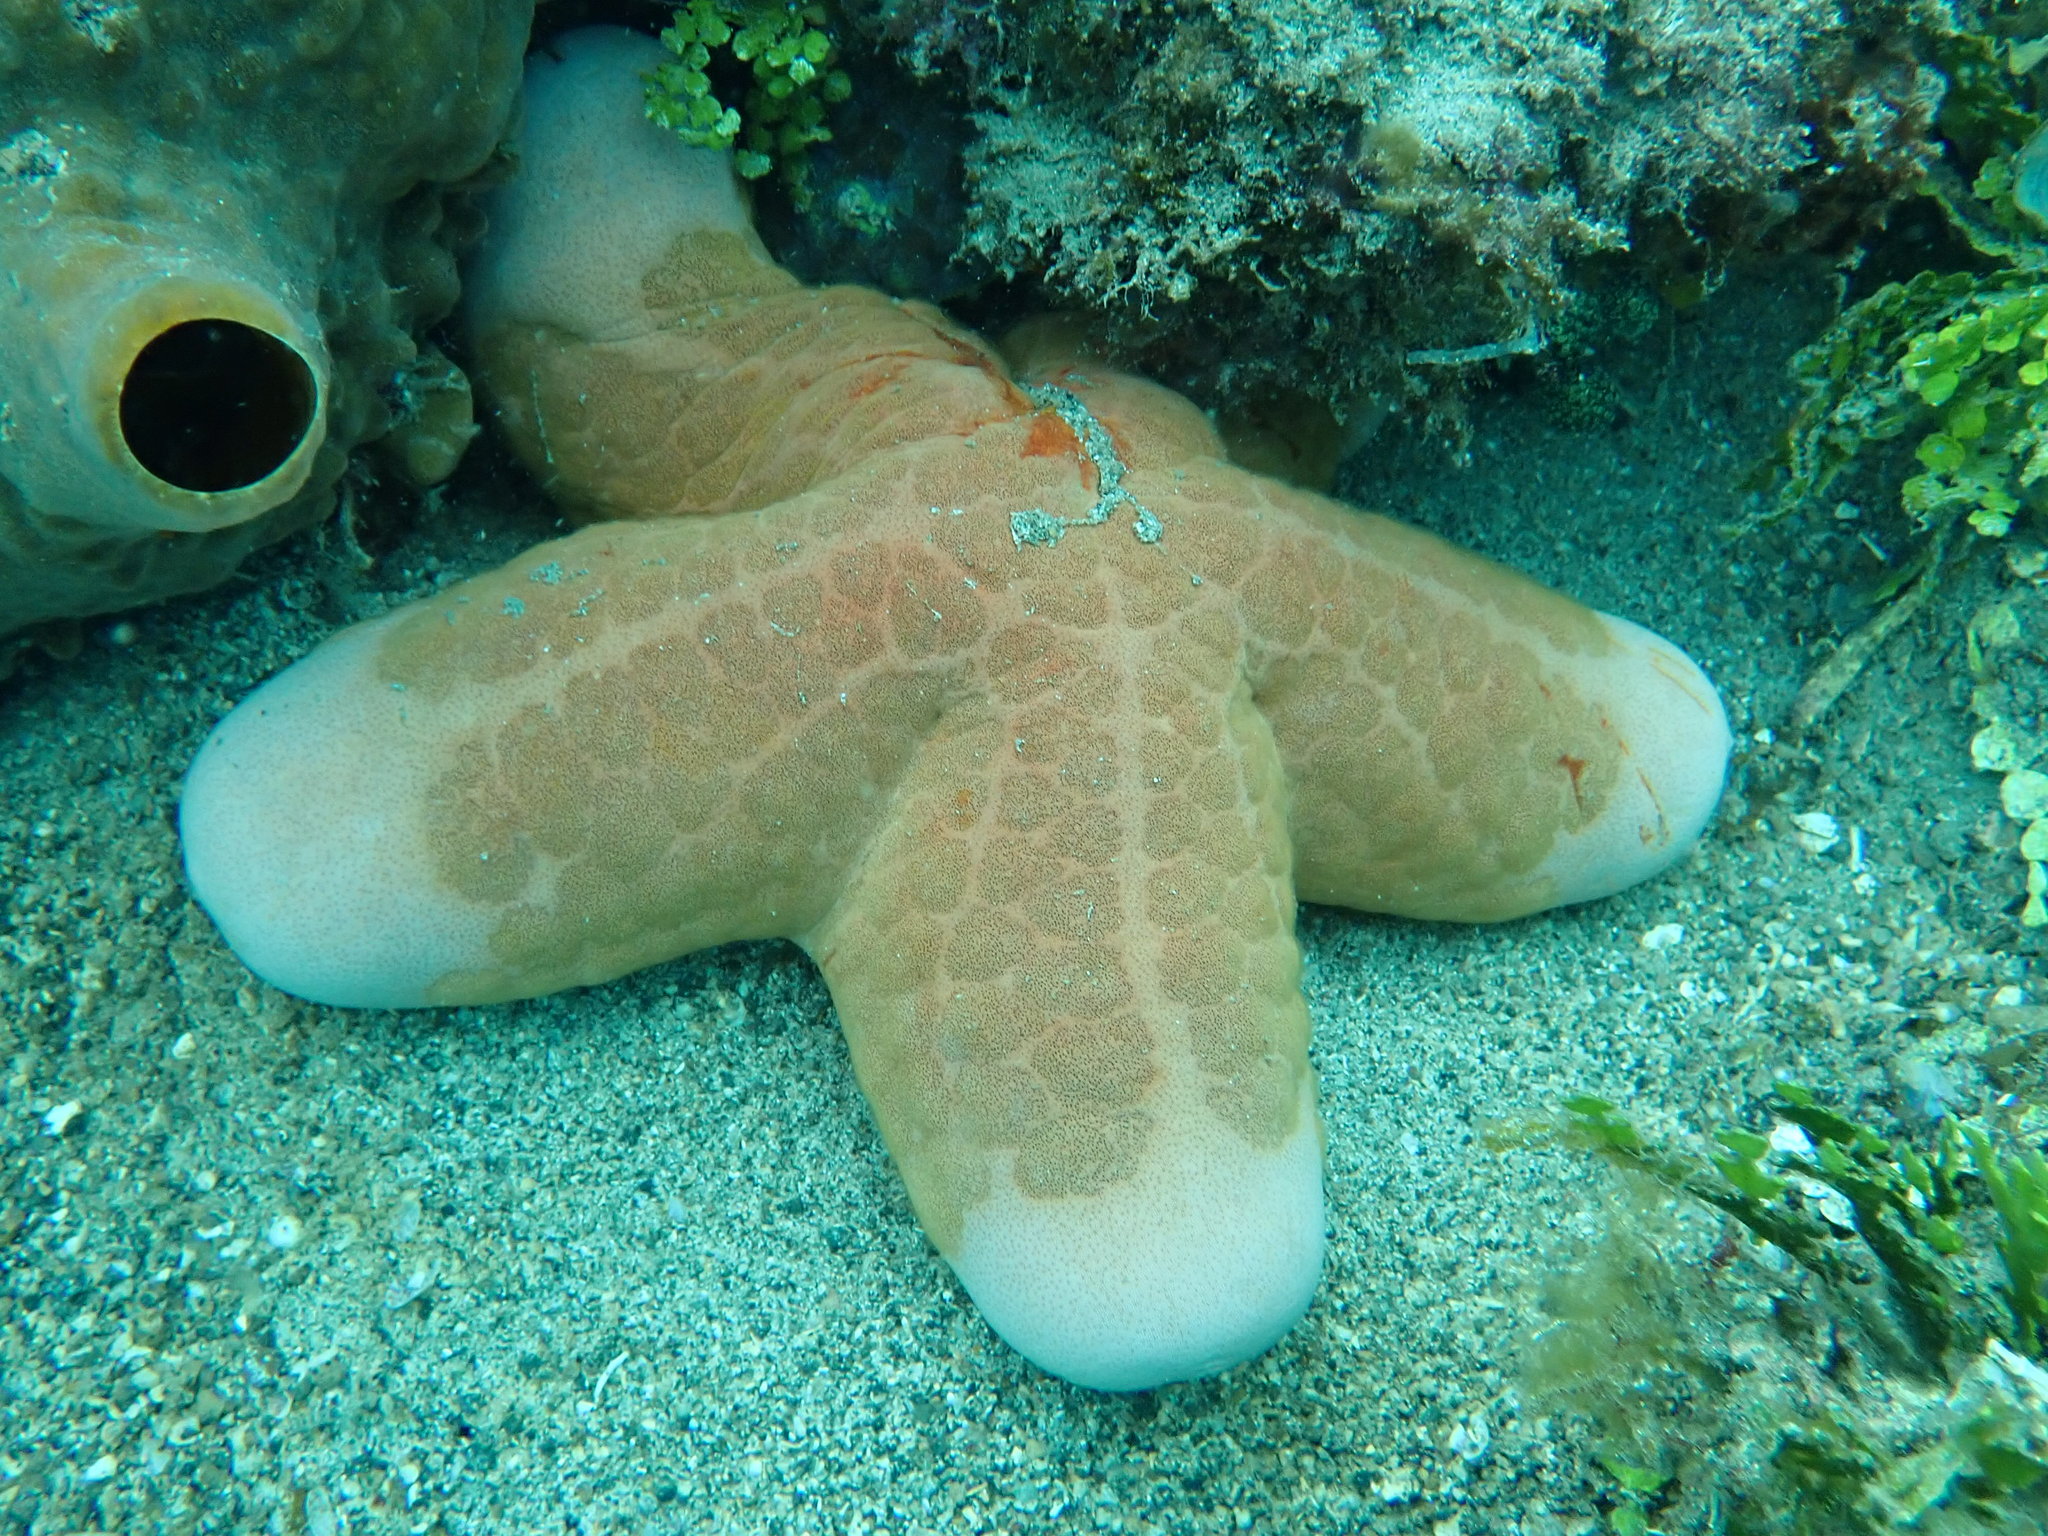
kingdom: Animalia
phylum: Echinodermata
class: Asteroidea
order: Valvatida
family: Oreasteridae
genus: Choriaster
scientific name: Choriaster granulatus
